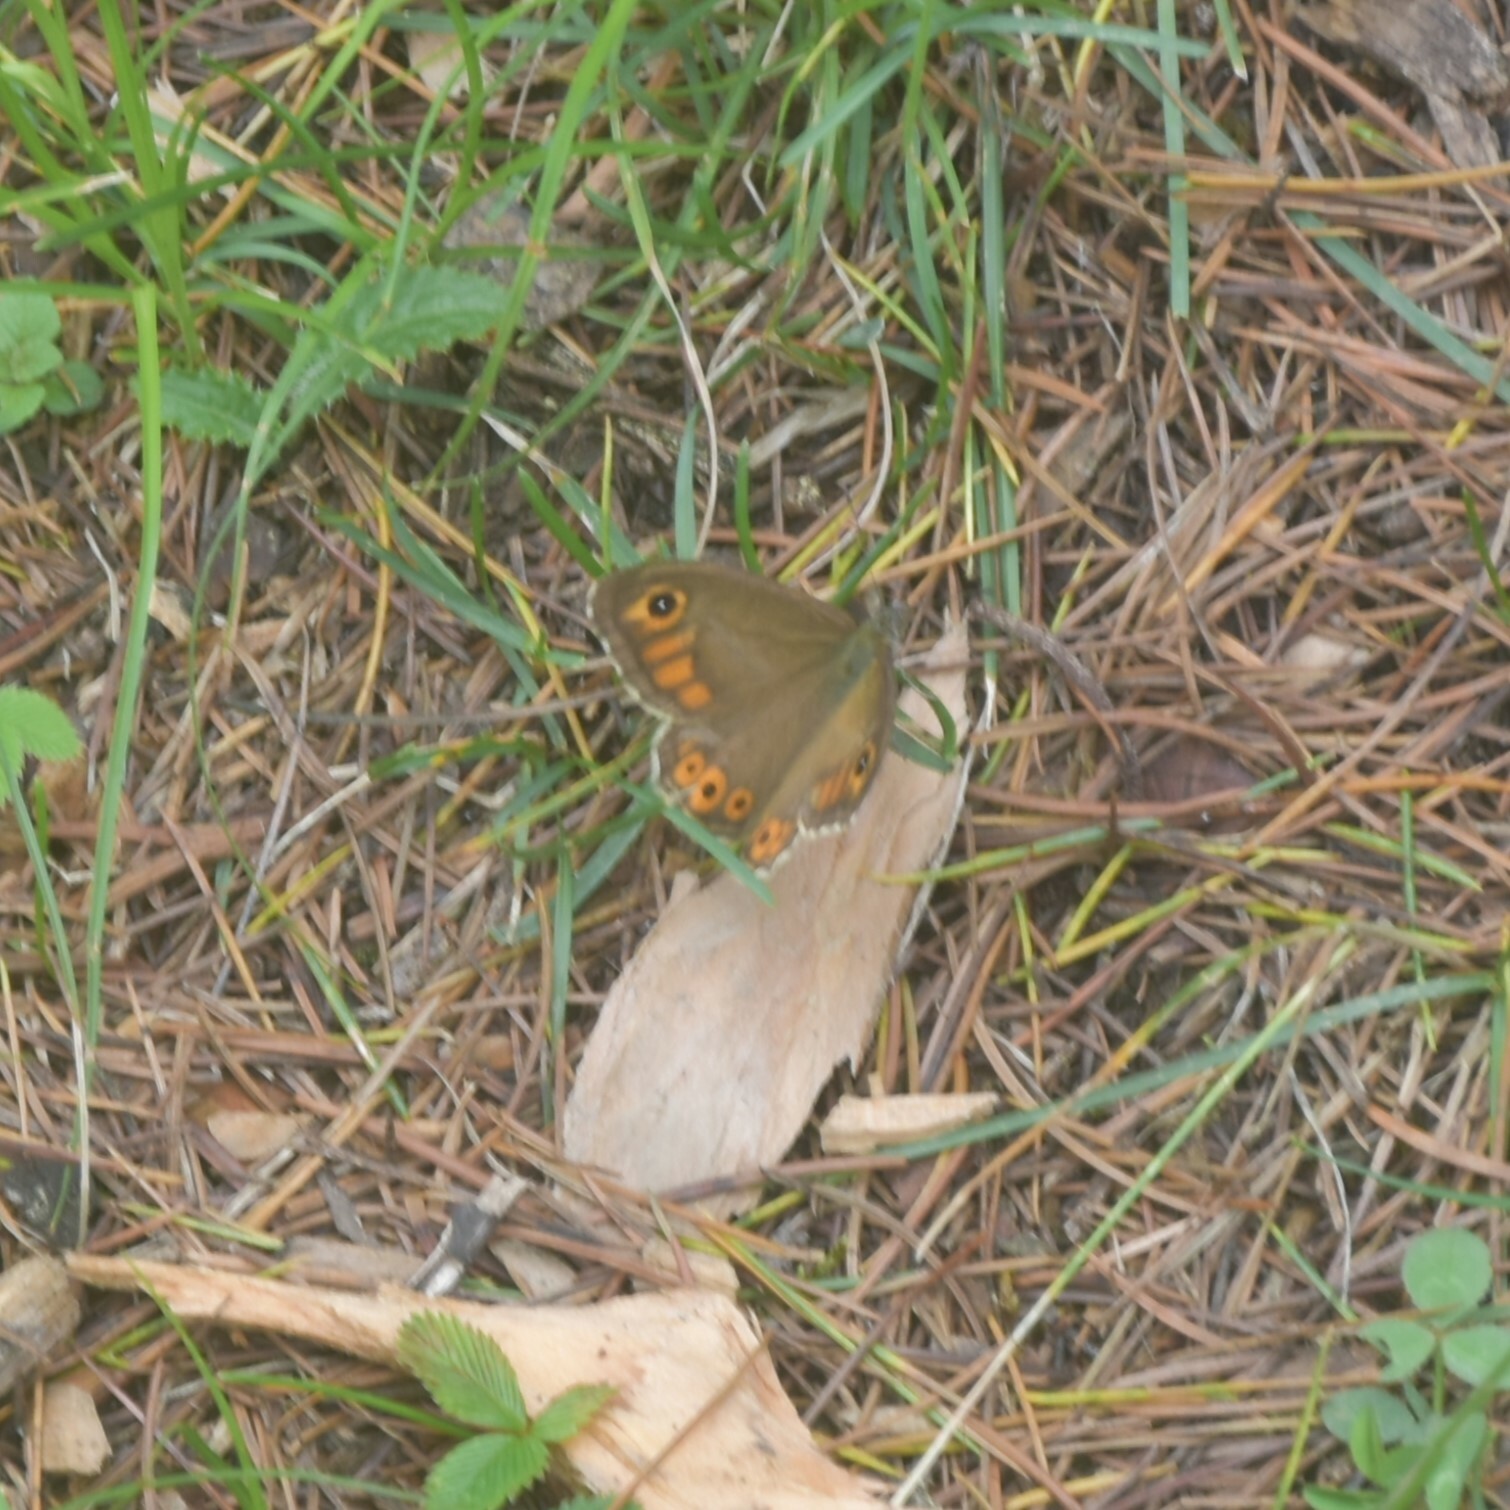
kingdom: Animalia
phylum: Arthropoda
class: Insecta
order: Lepidoptera
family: Nymphalidae
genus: Pararge
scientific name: Pararge Lasiommata schakra
